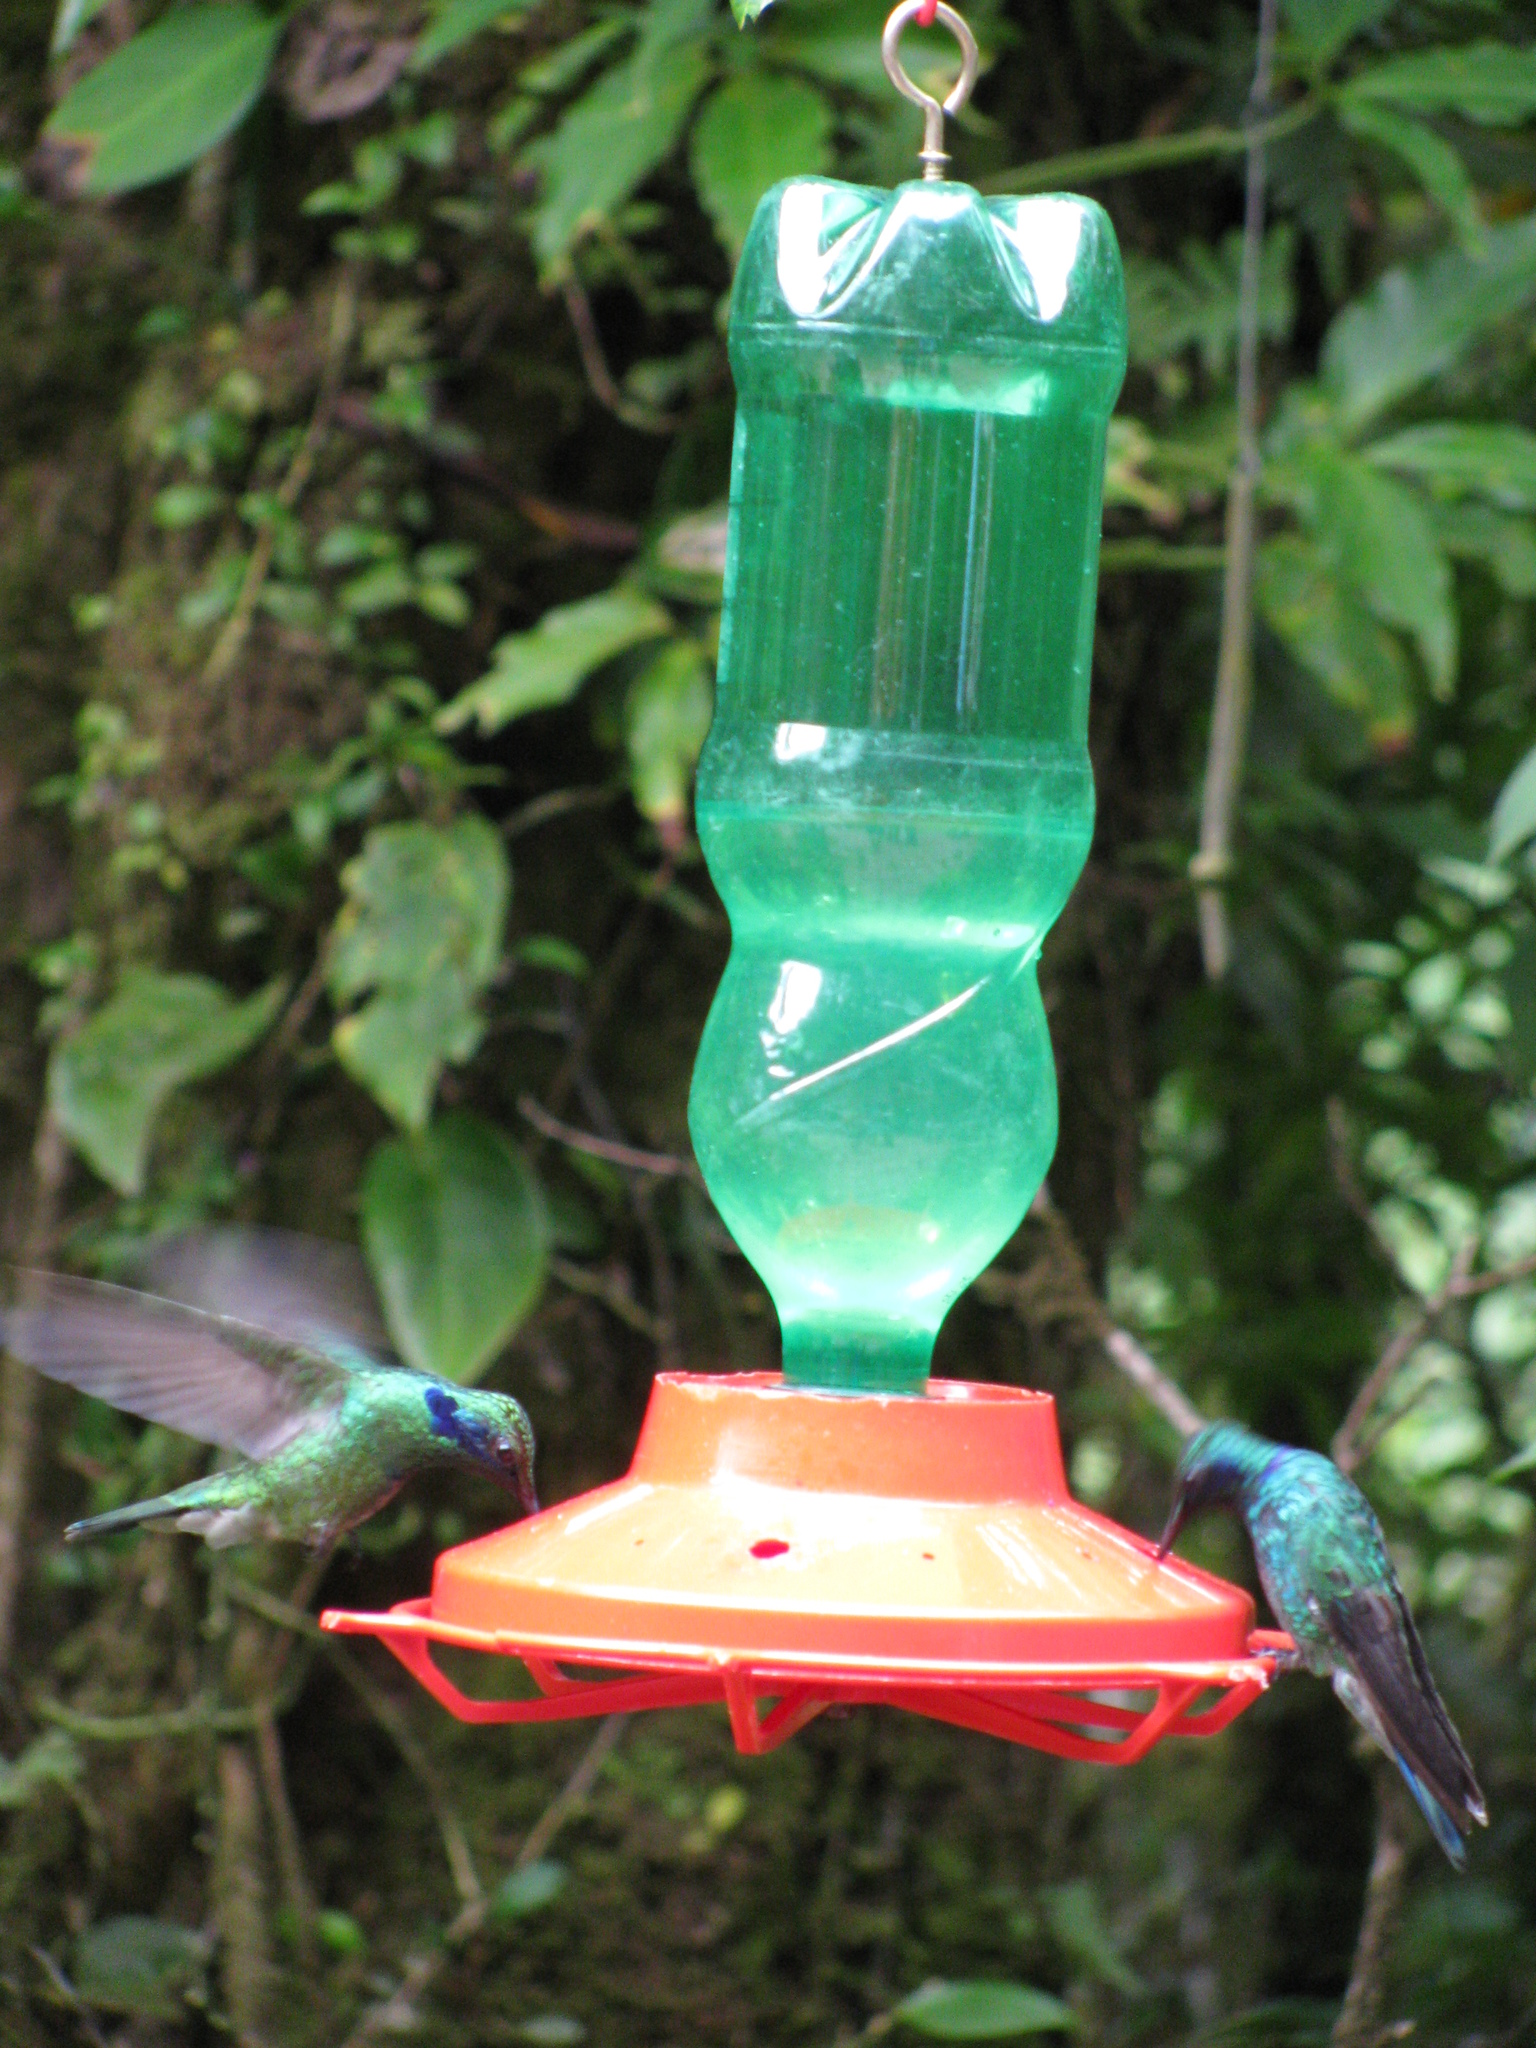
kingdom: Animalia
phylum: Chordata
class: Aves
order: Apodiformes
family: Trochilidae
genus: Colibri
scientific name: Colibri cyanotus
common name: Lesser violetear
